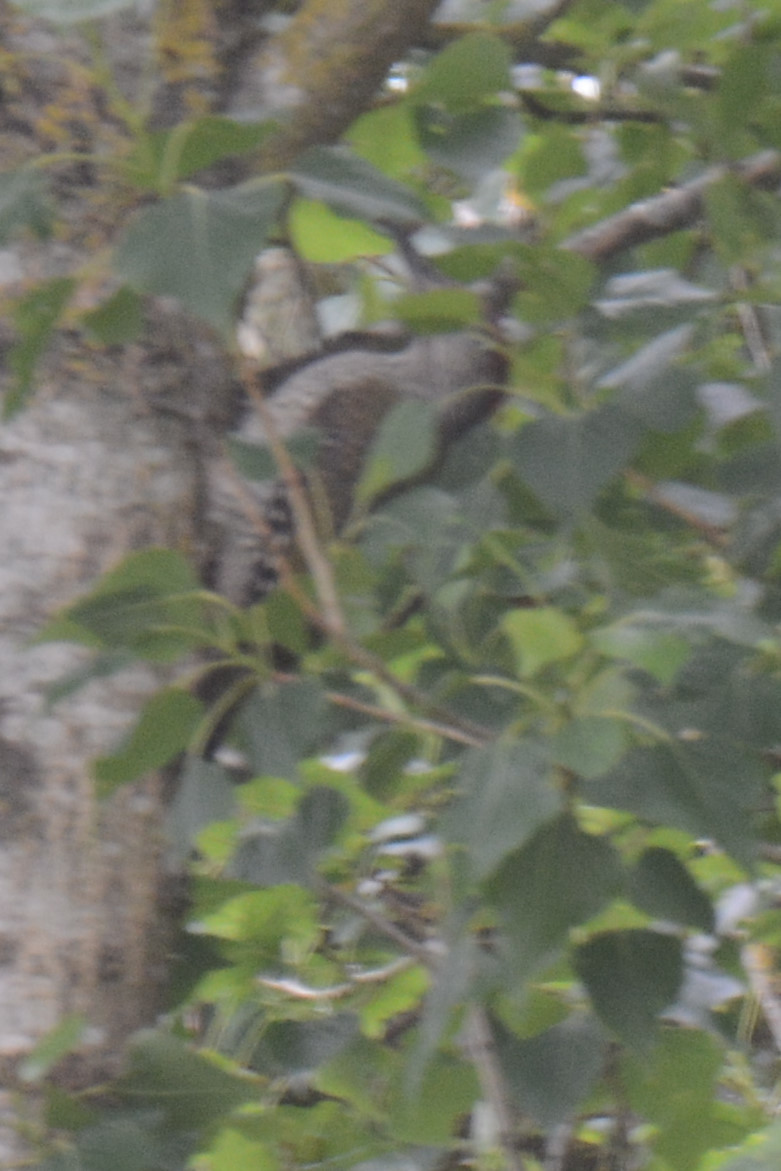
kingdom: Animalia
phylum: Chordata
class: Aves
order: Piciformes
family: Picidae
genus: Picus
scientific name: Picus viridis
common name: European green woodpecker
